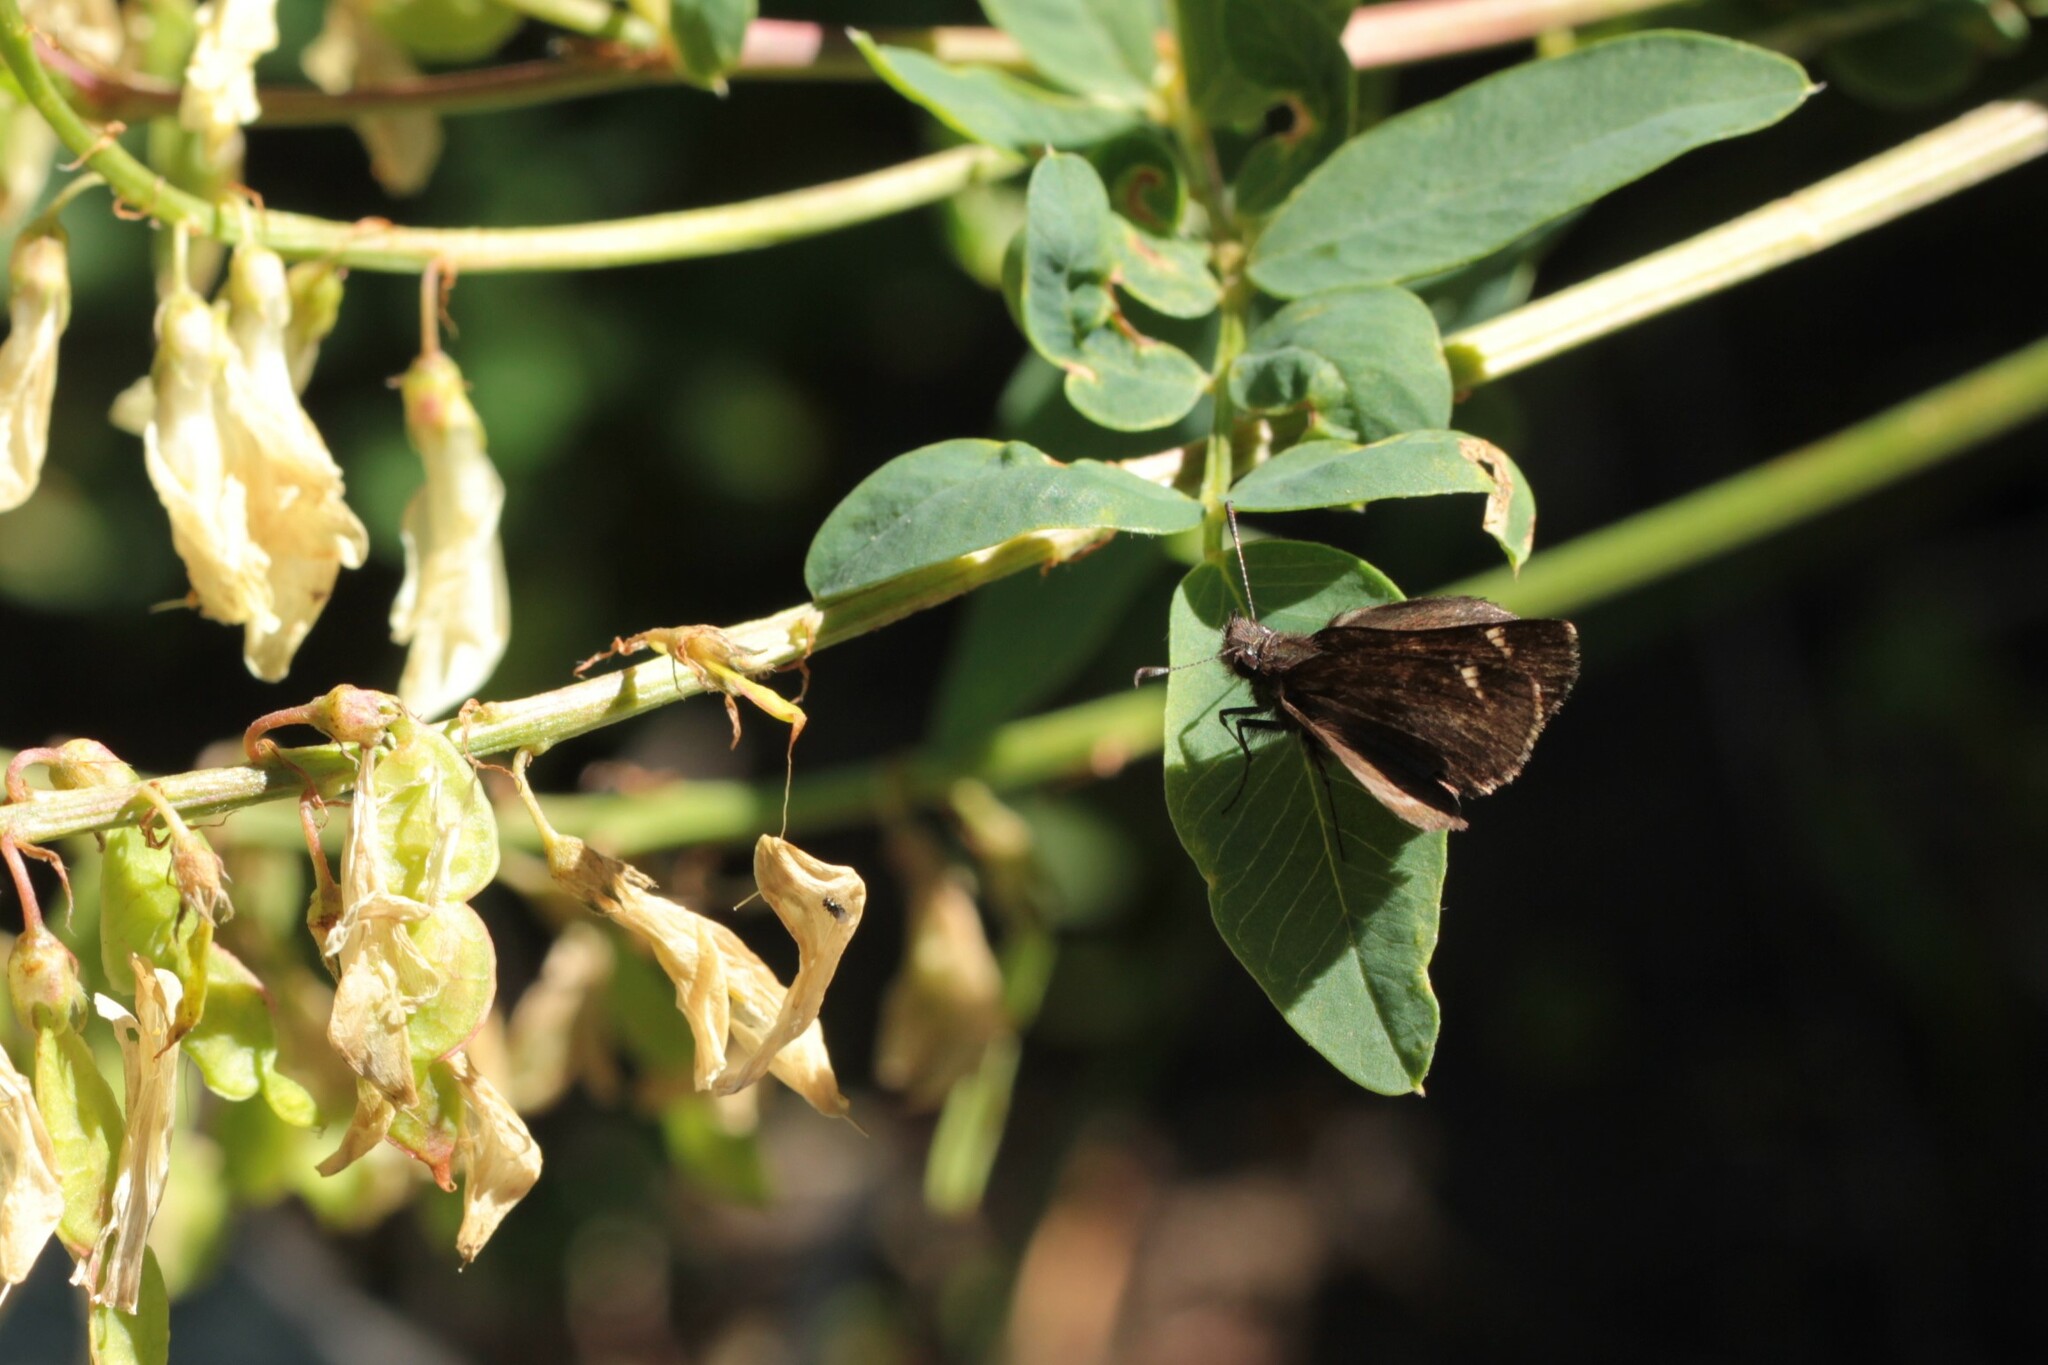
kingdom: Animalia
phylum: Arthropoda
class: Insecta
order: Lepidoptera
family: Hesperiidae
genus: Mastor
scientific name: Mastor vialis
